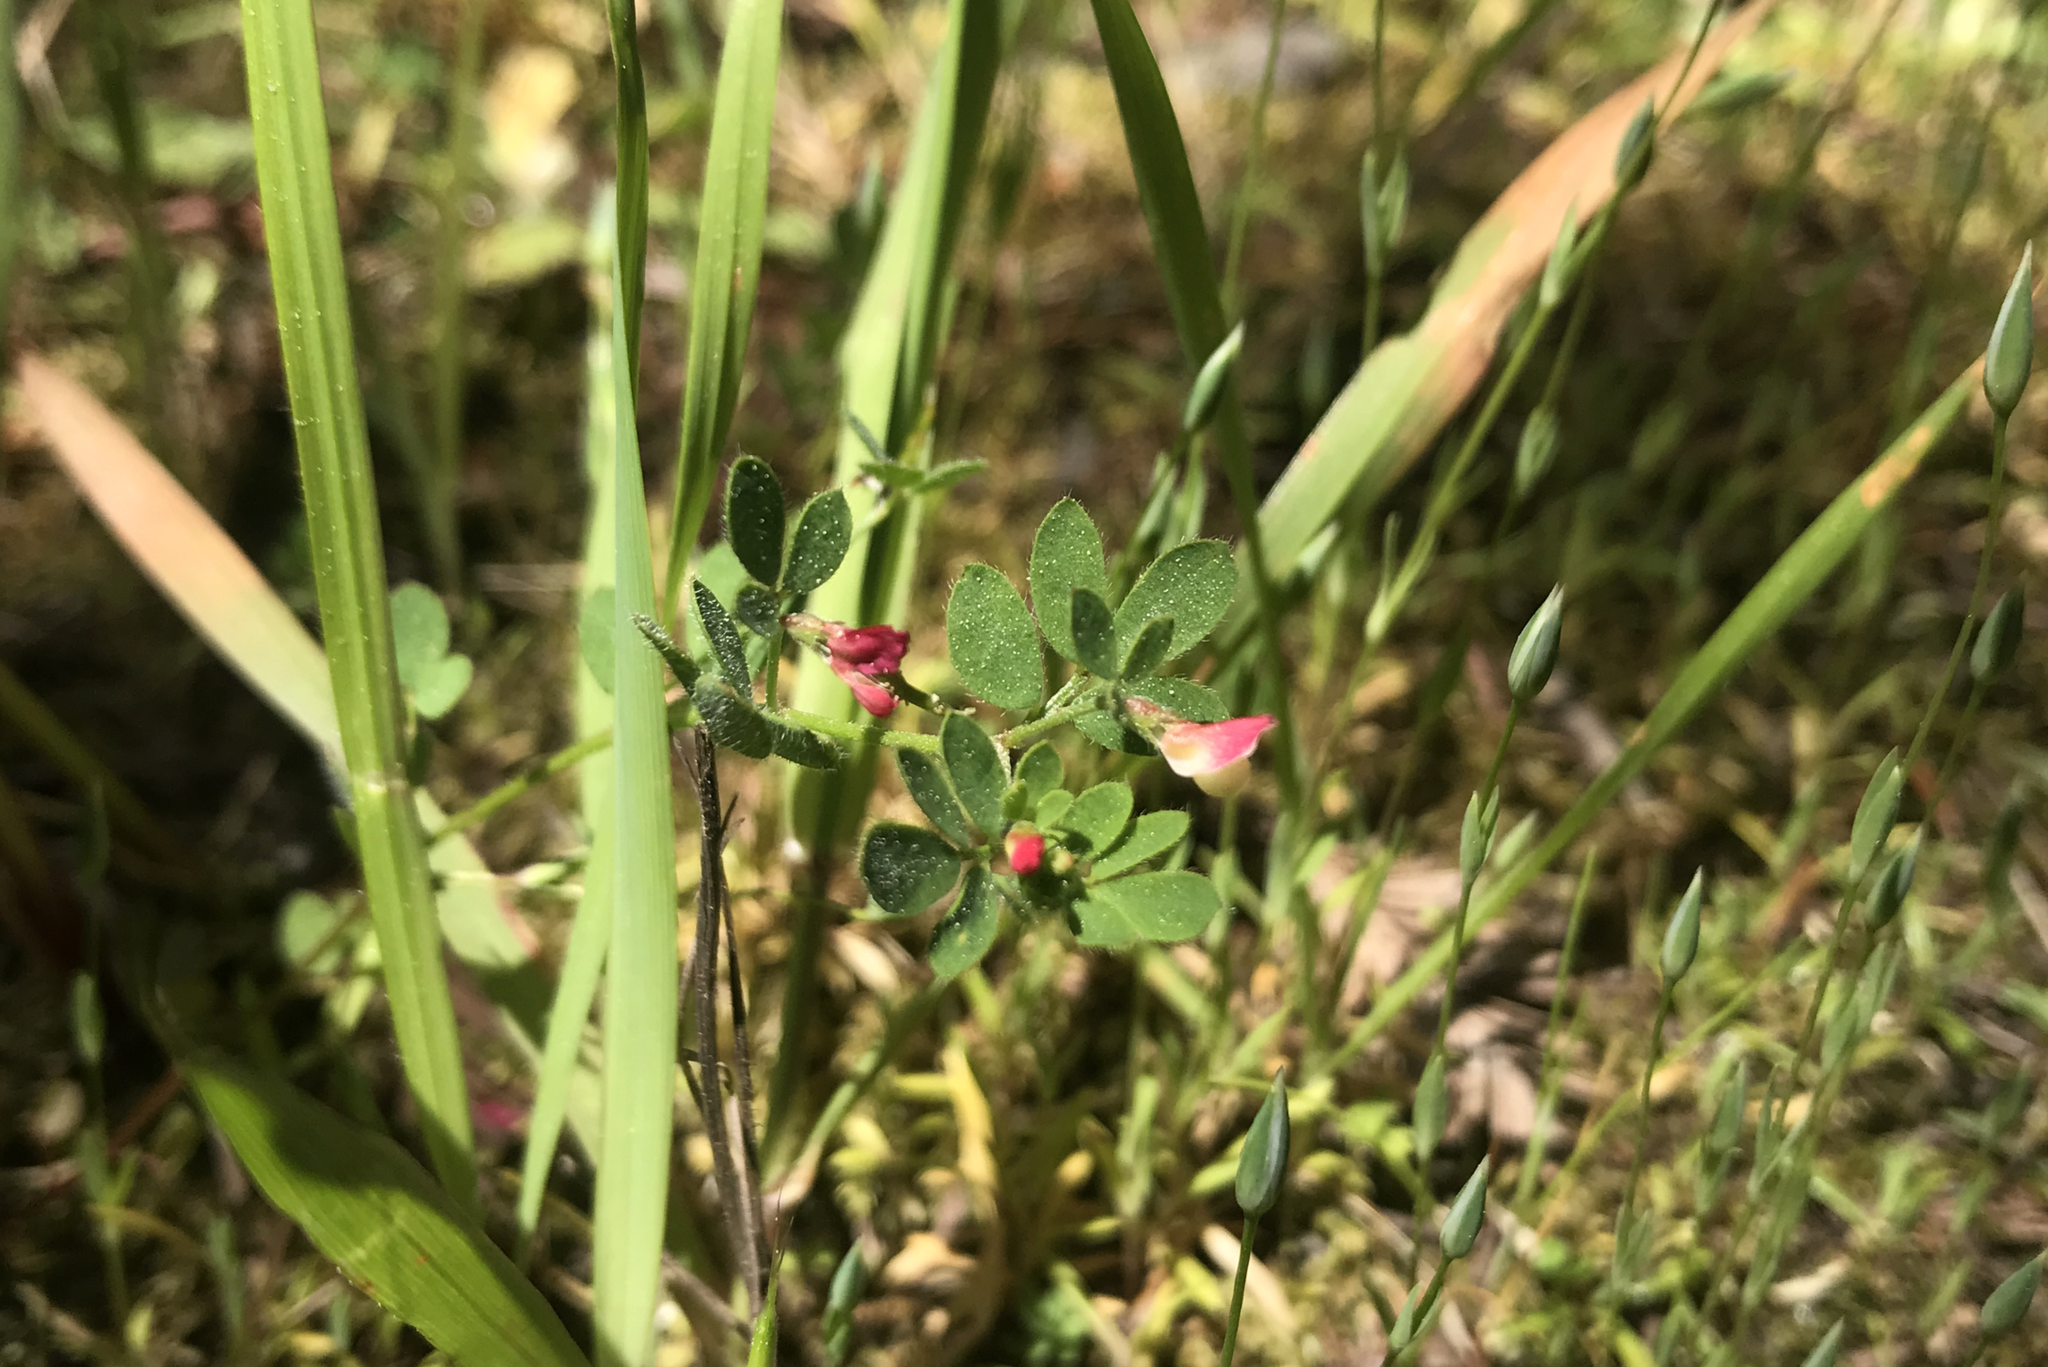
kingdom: Plantae
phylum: Tracheophyta
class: Magnoliopsida
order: Fabales
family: Fabaceae
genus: Acmispon
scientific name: Acmispon parviflorus
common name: Desert deer-vetch
